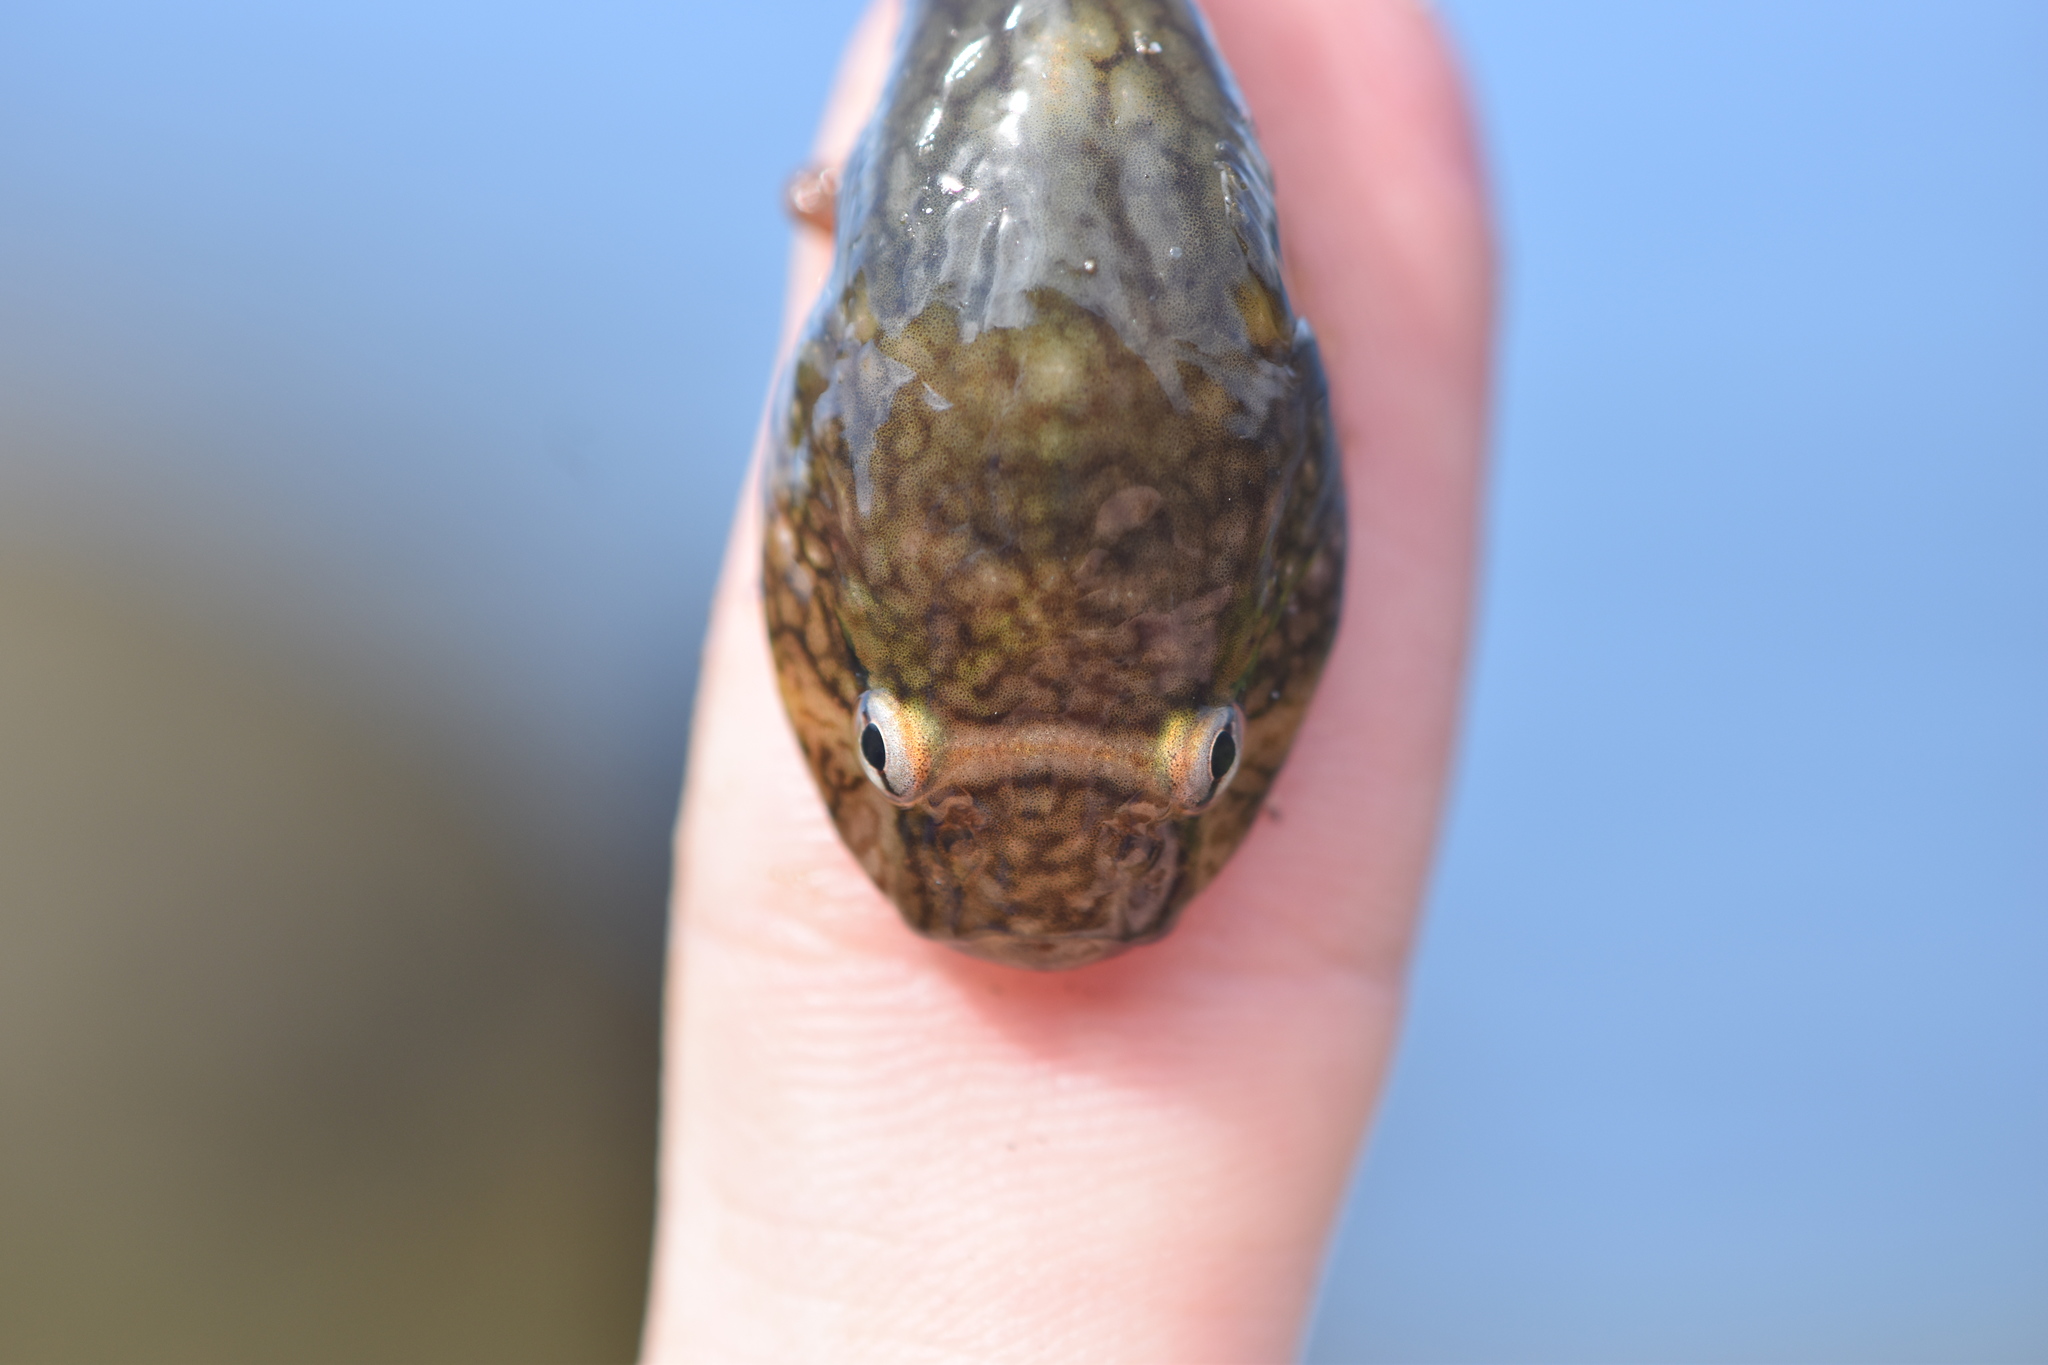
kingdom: Animalia
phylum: Chordata
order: Gobiesociformes
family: Gobiesocidae
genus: Gobiesox
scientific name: Gobiesox maeandricus
